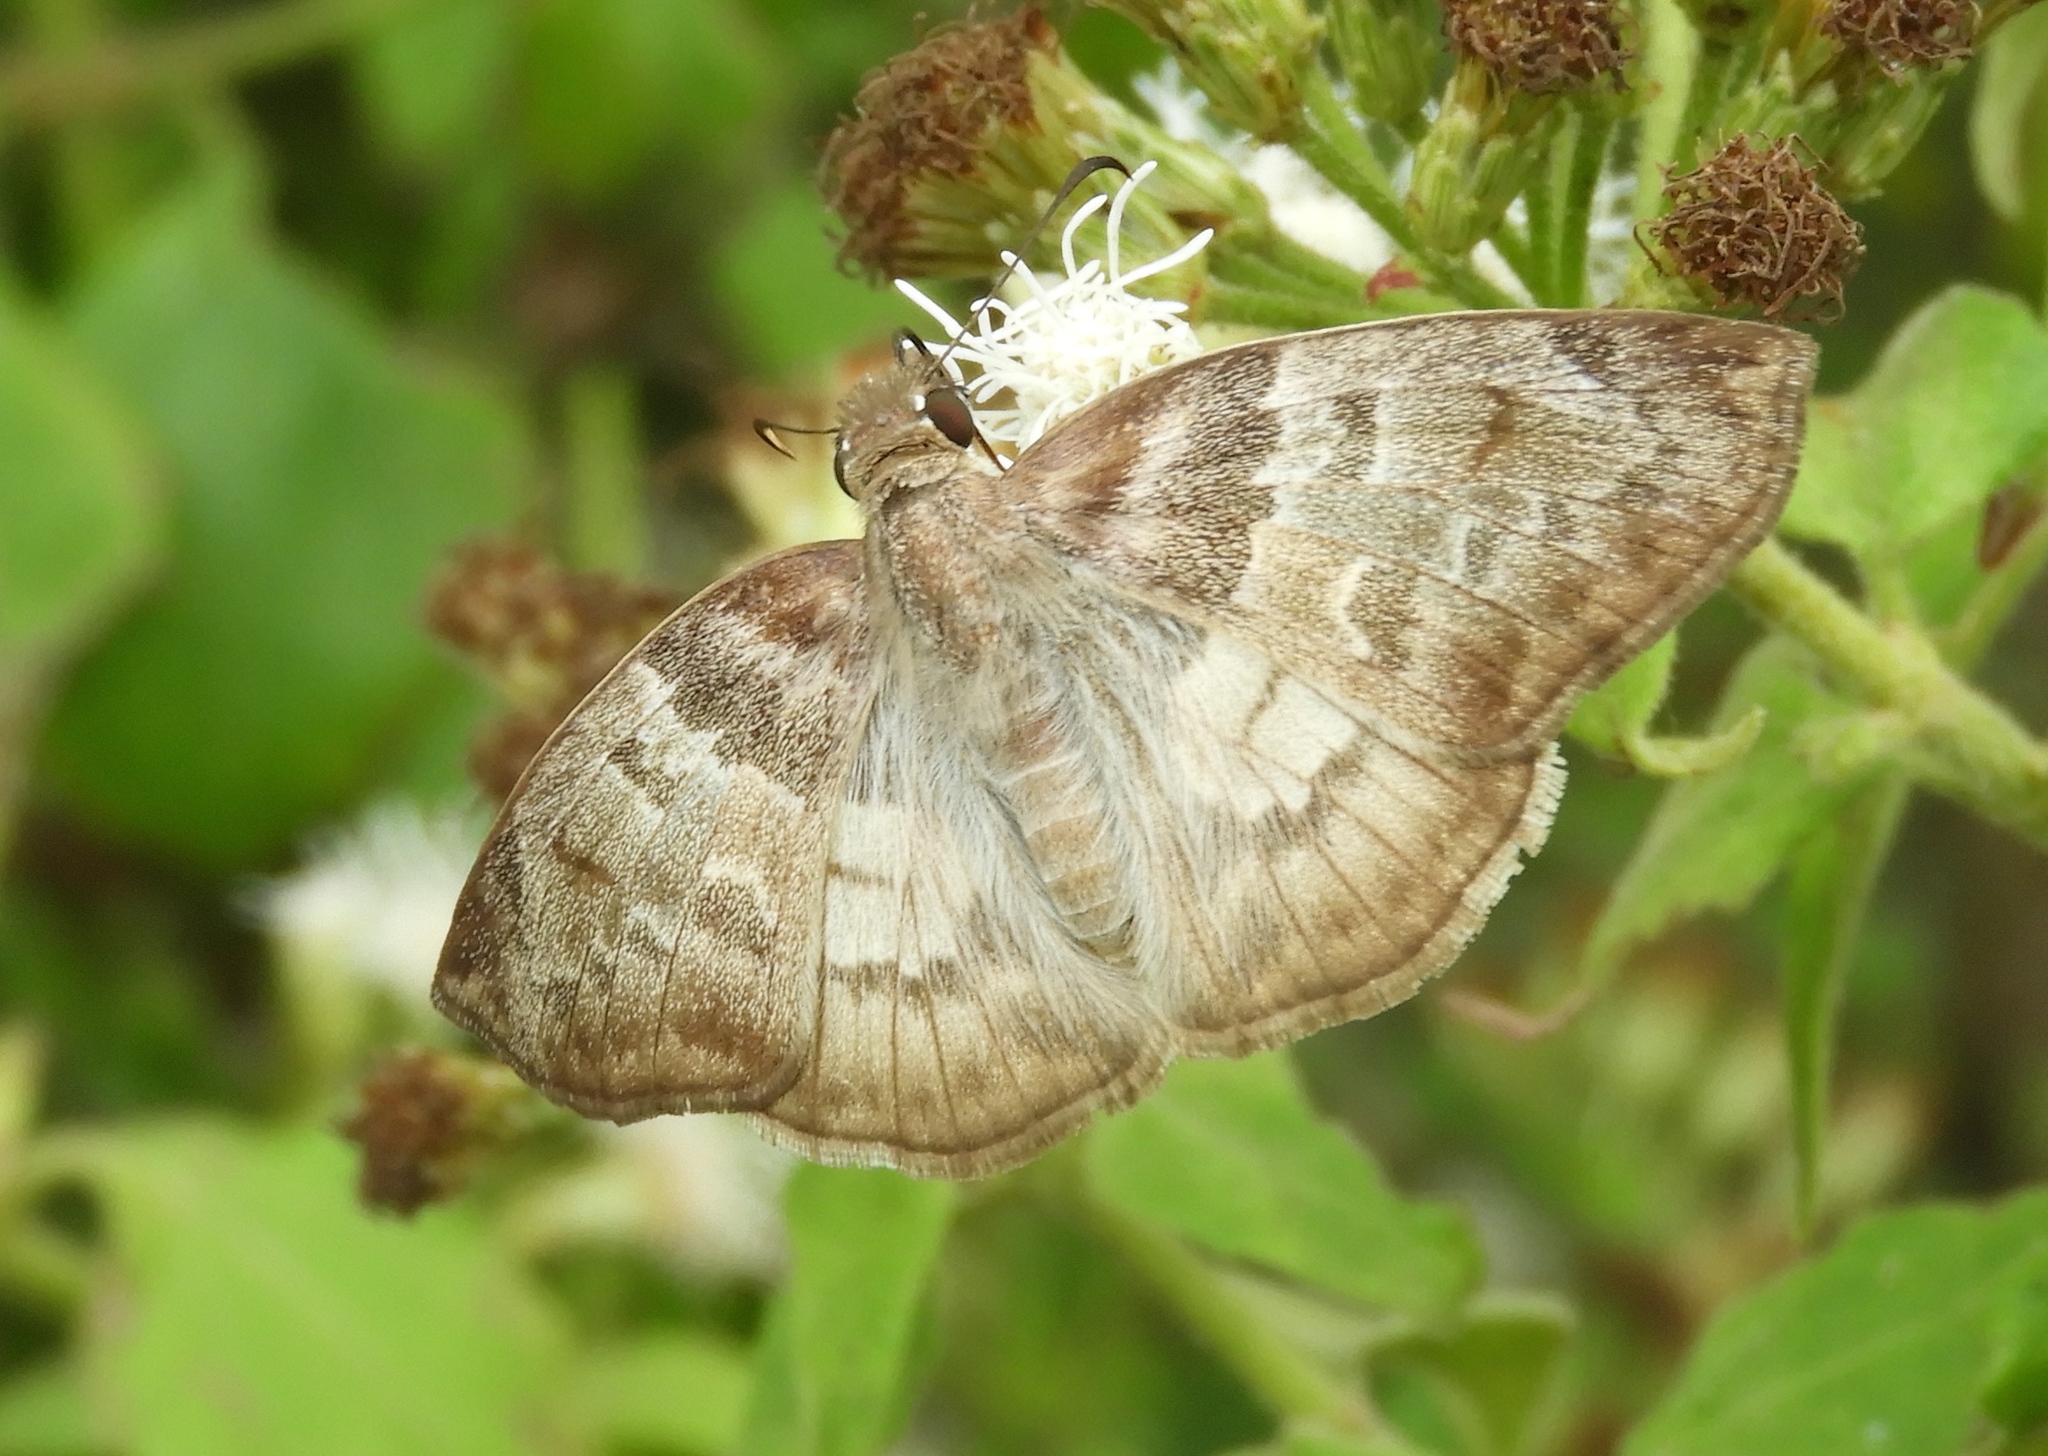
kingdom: Animalia
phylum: Arthropoda
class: Insecta
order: Lepidoptera
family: Hesperiidae
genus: Mylon
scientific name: Mylon pelopidas
